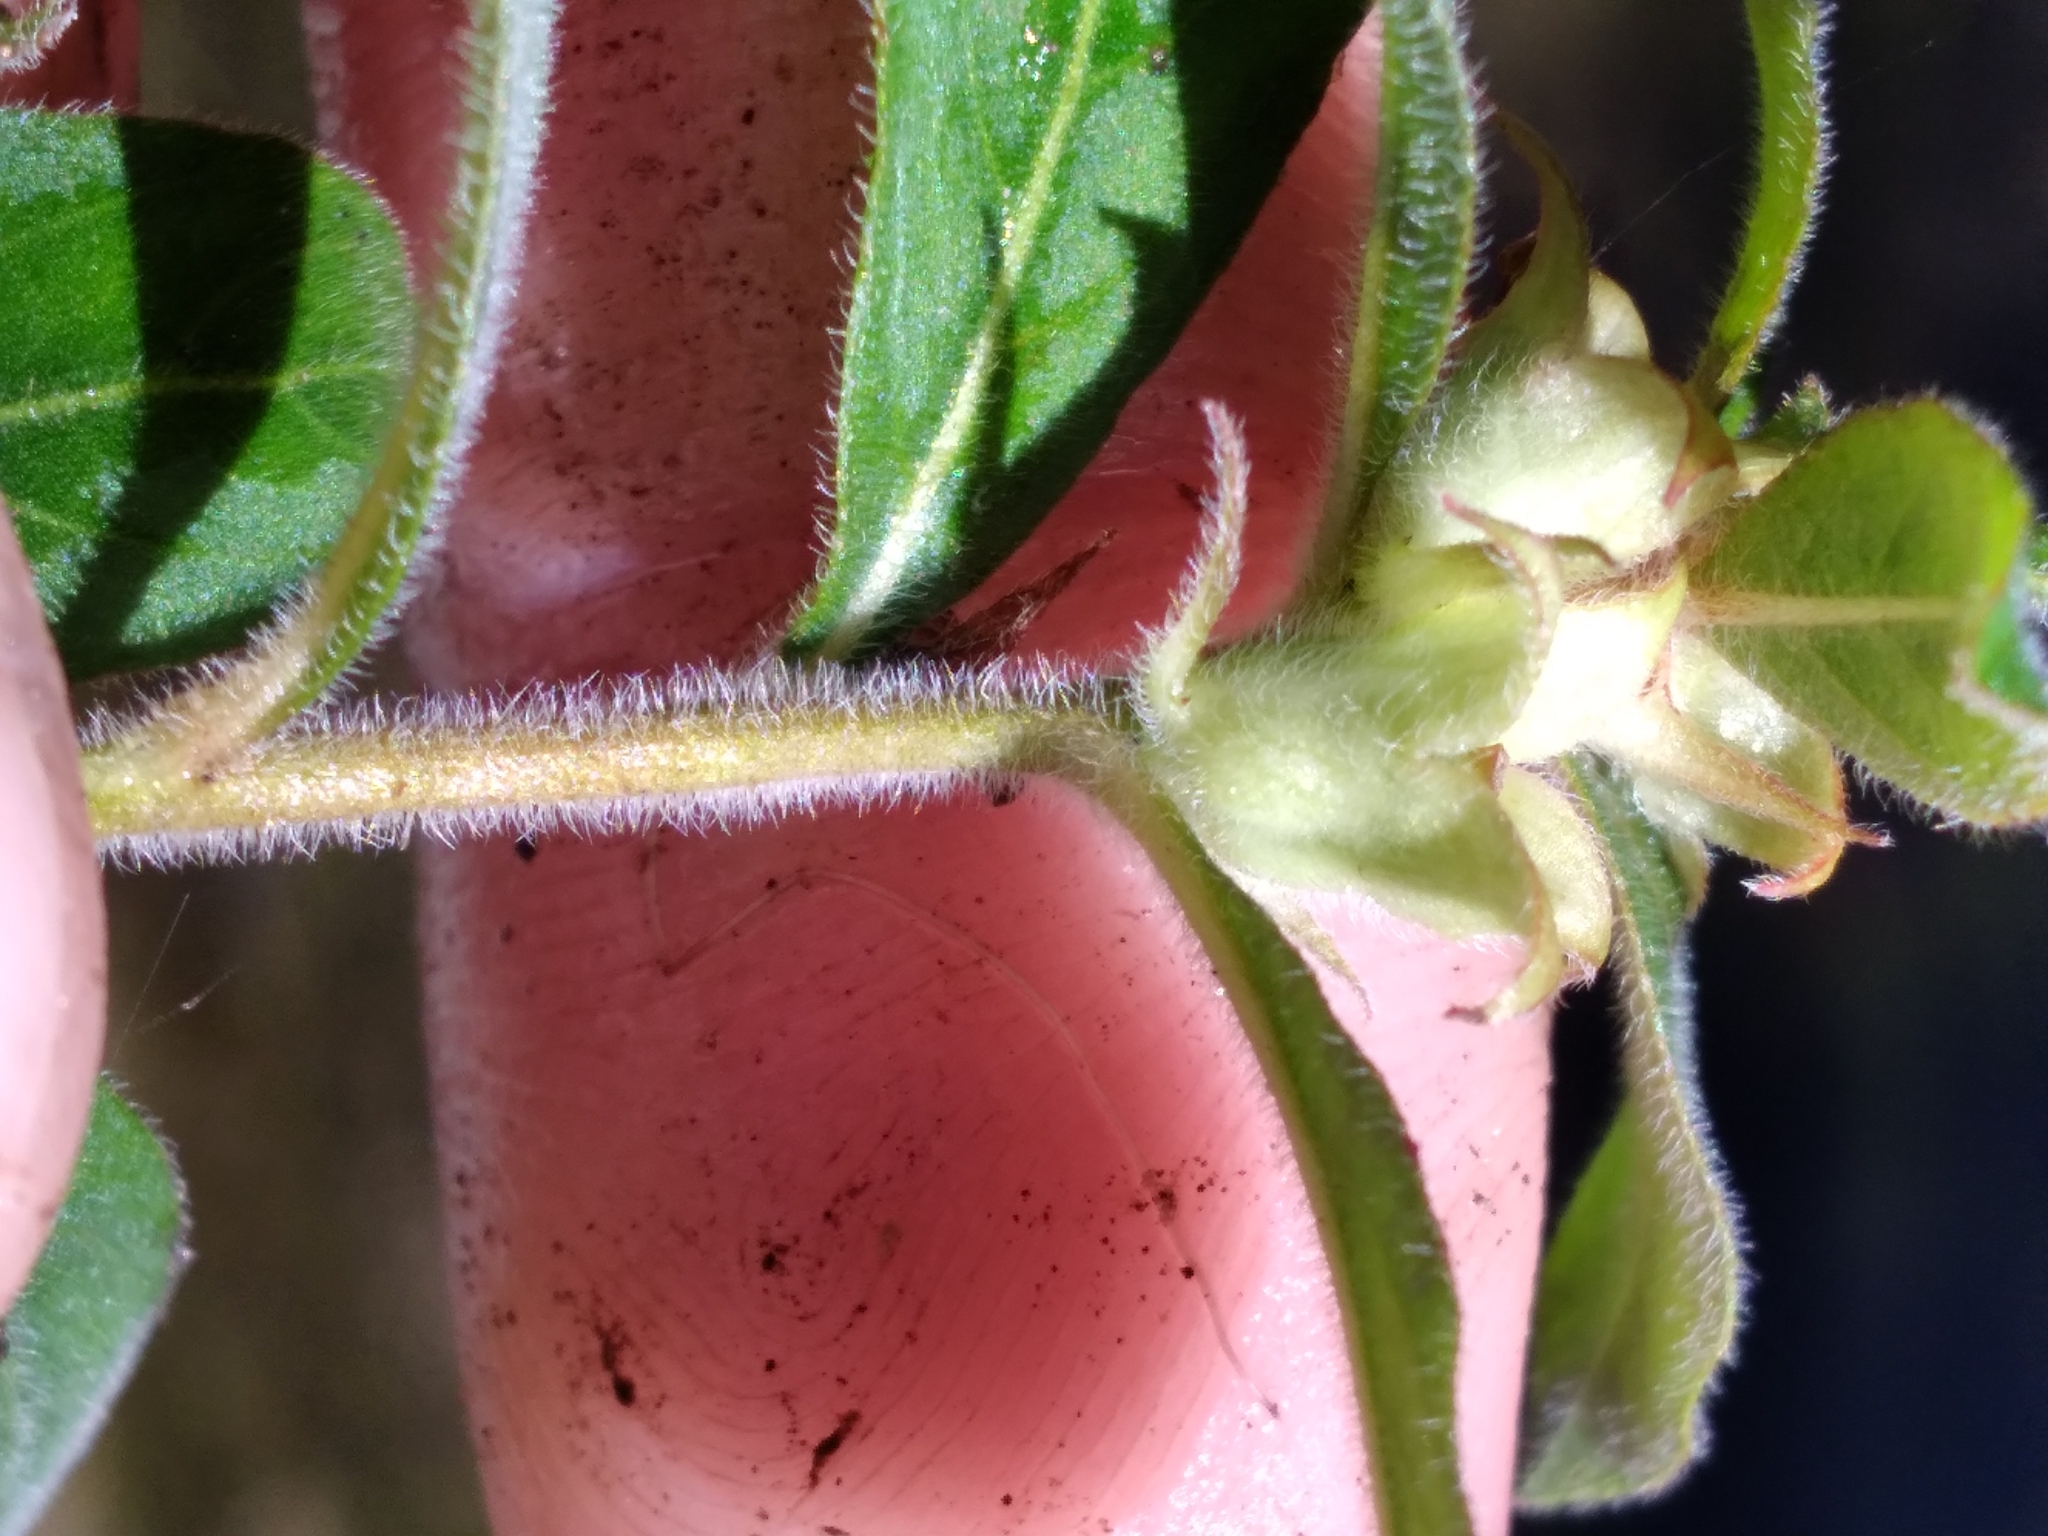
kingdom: Plantae
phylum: Tracheophyta
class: Magnoliopsida
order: Myrtales
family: Onagraceae
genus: Ludwigia
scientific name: Ludwigia pilosa
